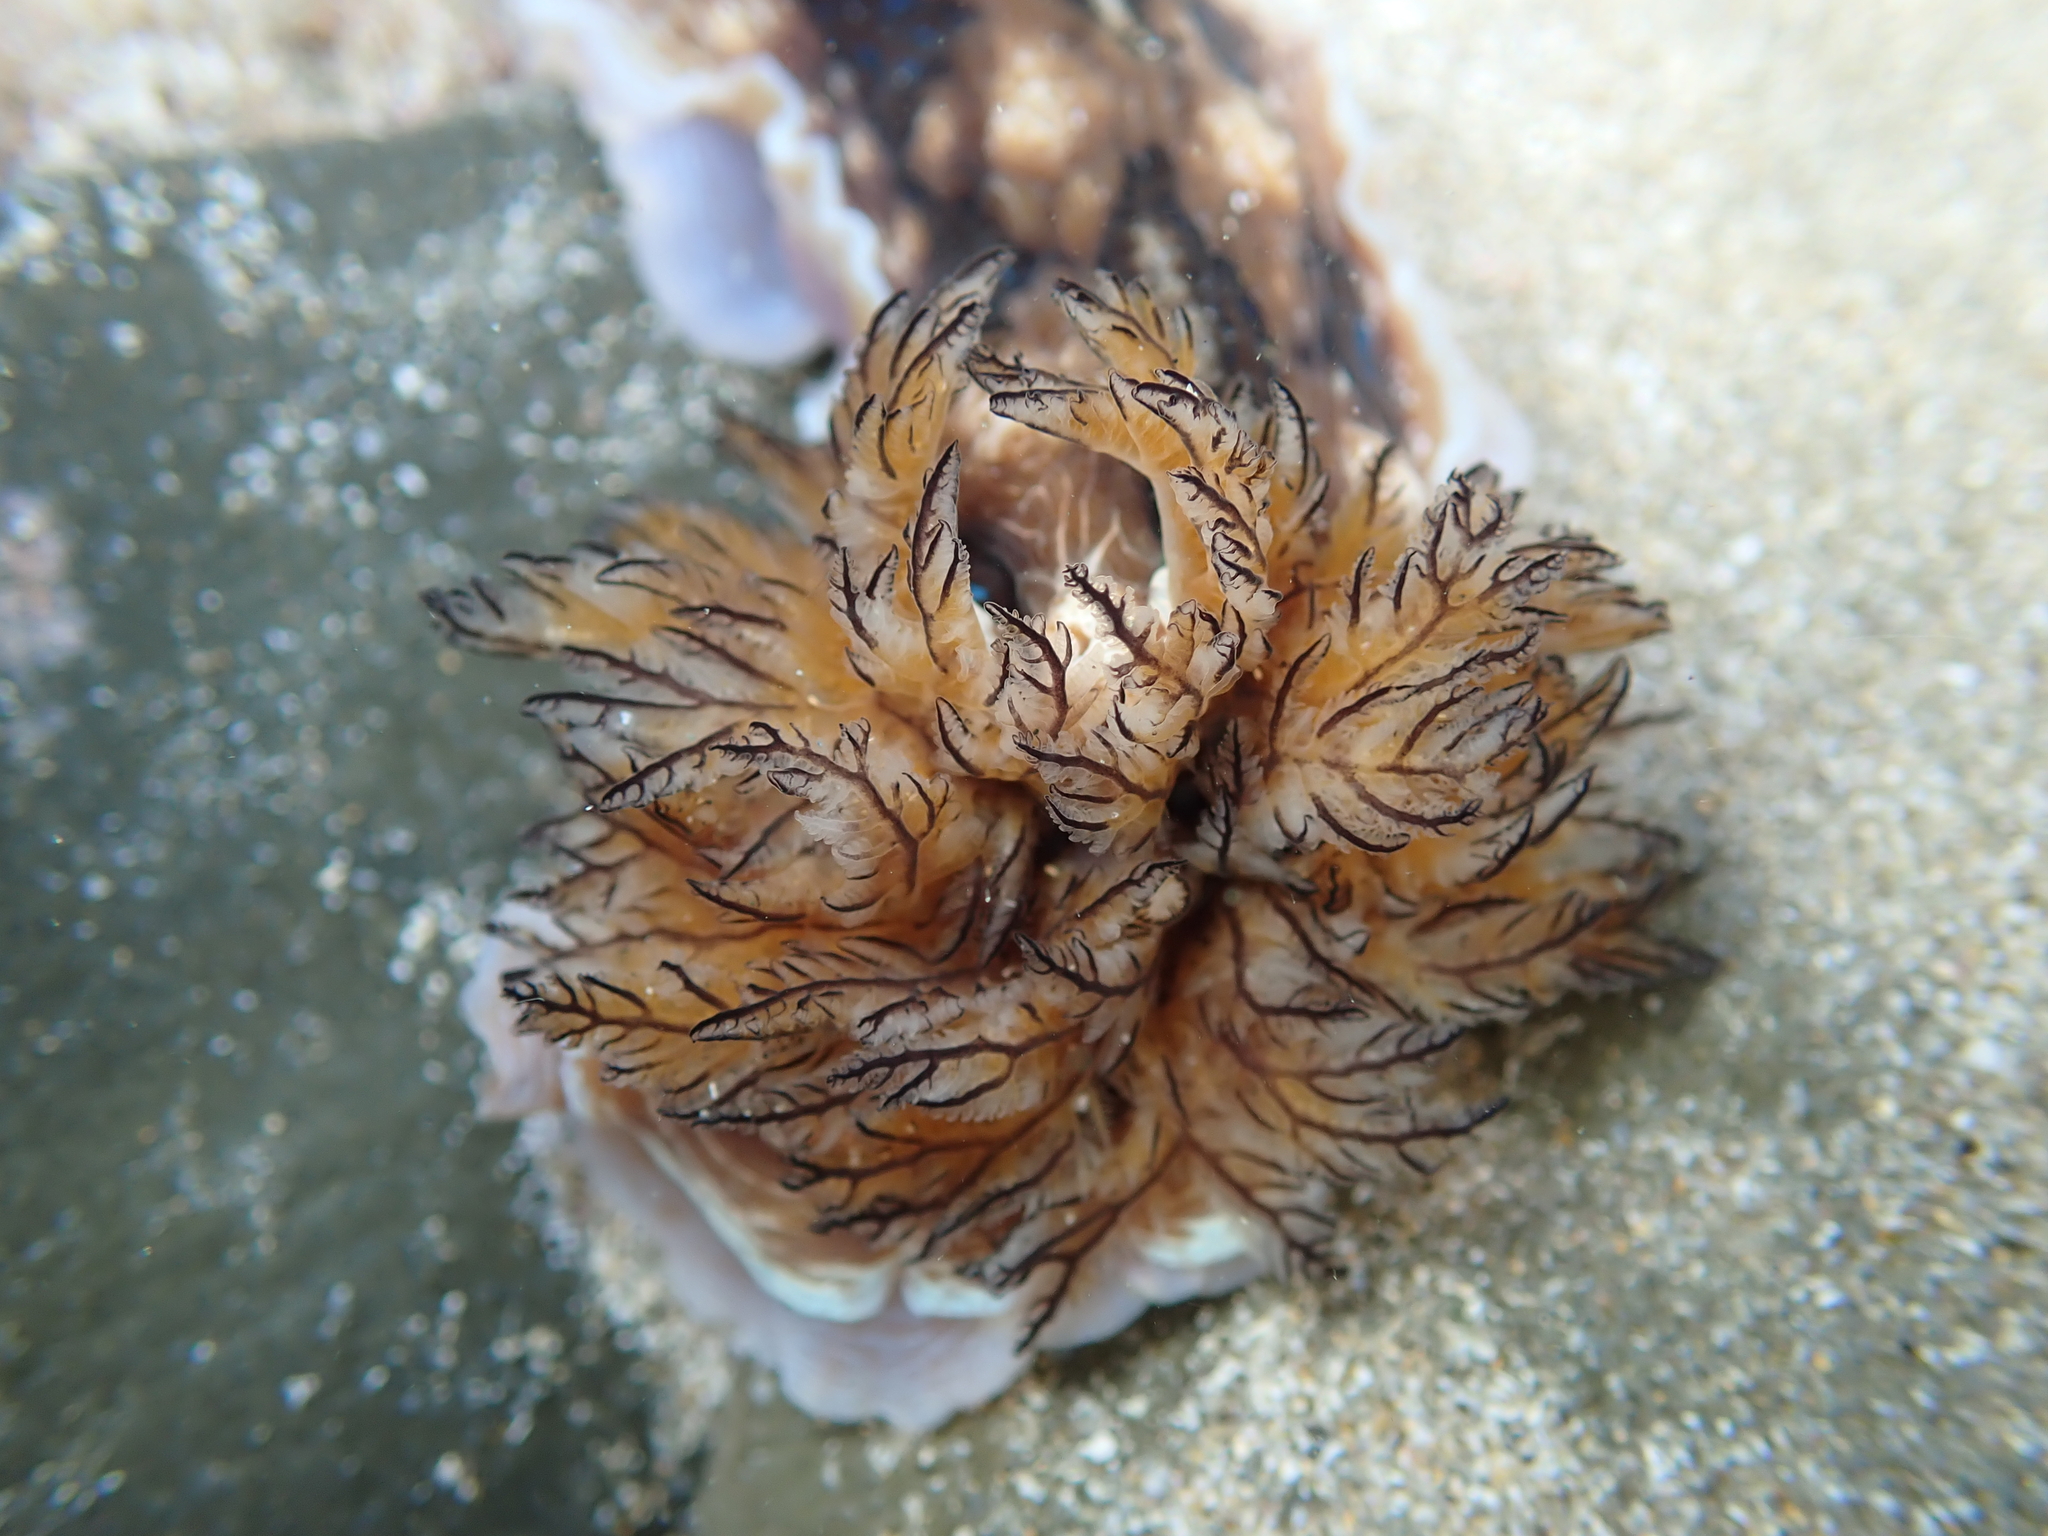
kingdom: Animalia
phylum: Mollusca
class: Gastropoda
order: Nudibranchia
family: Dendrodorididae
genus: Dendrodoris
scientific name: Dendrodoris krusensternii
